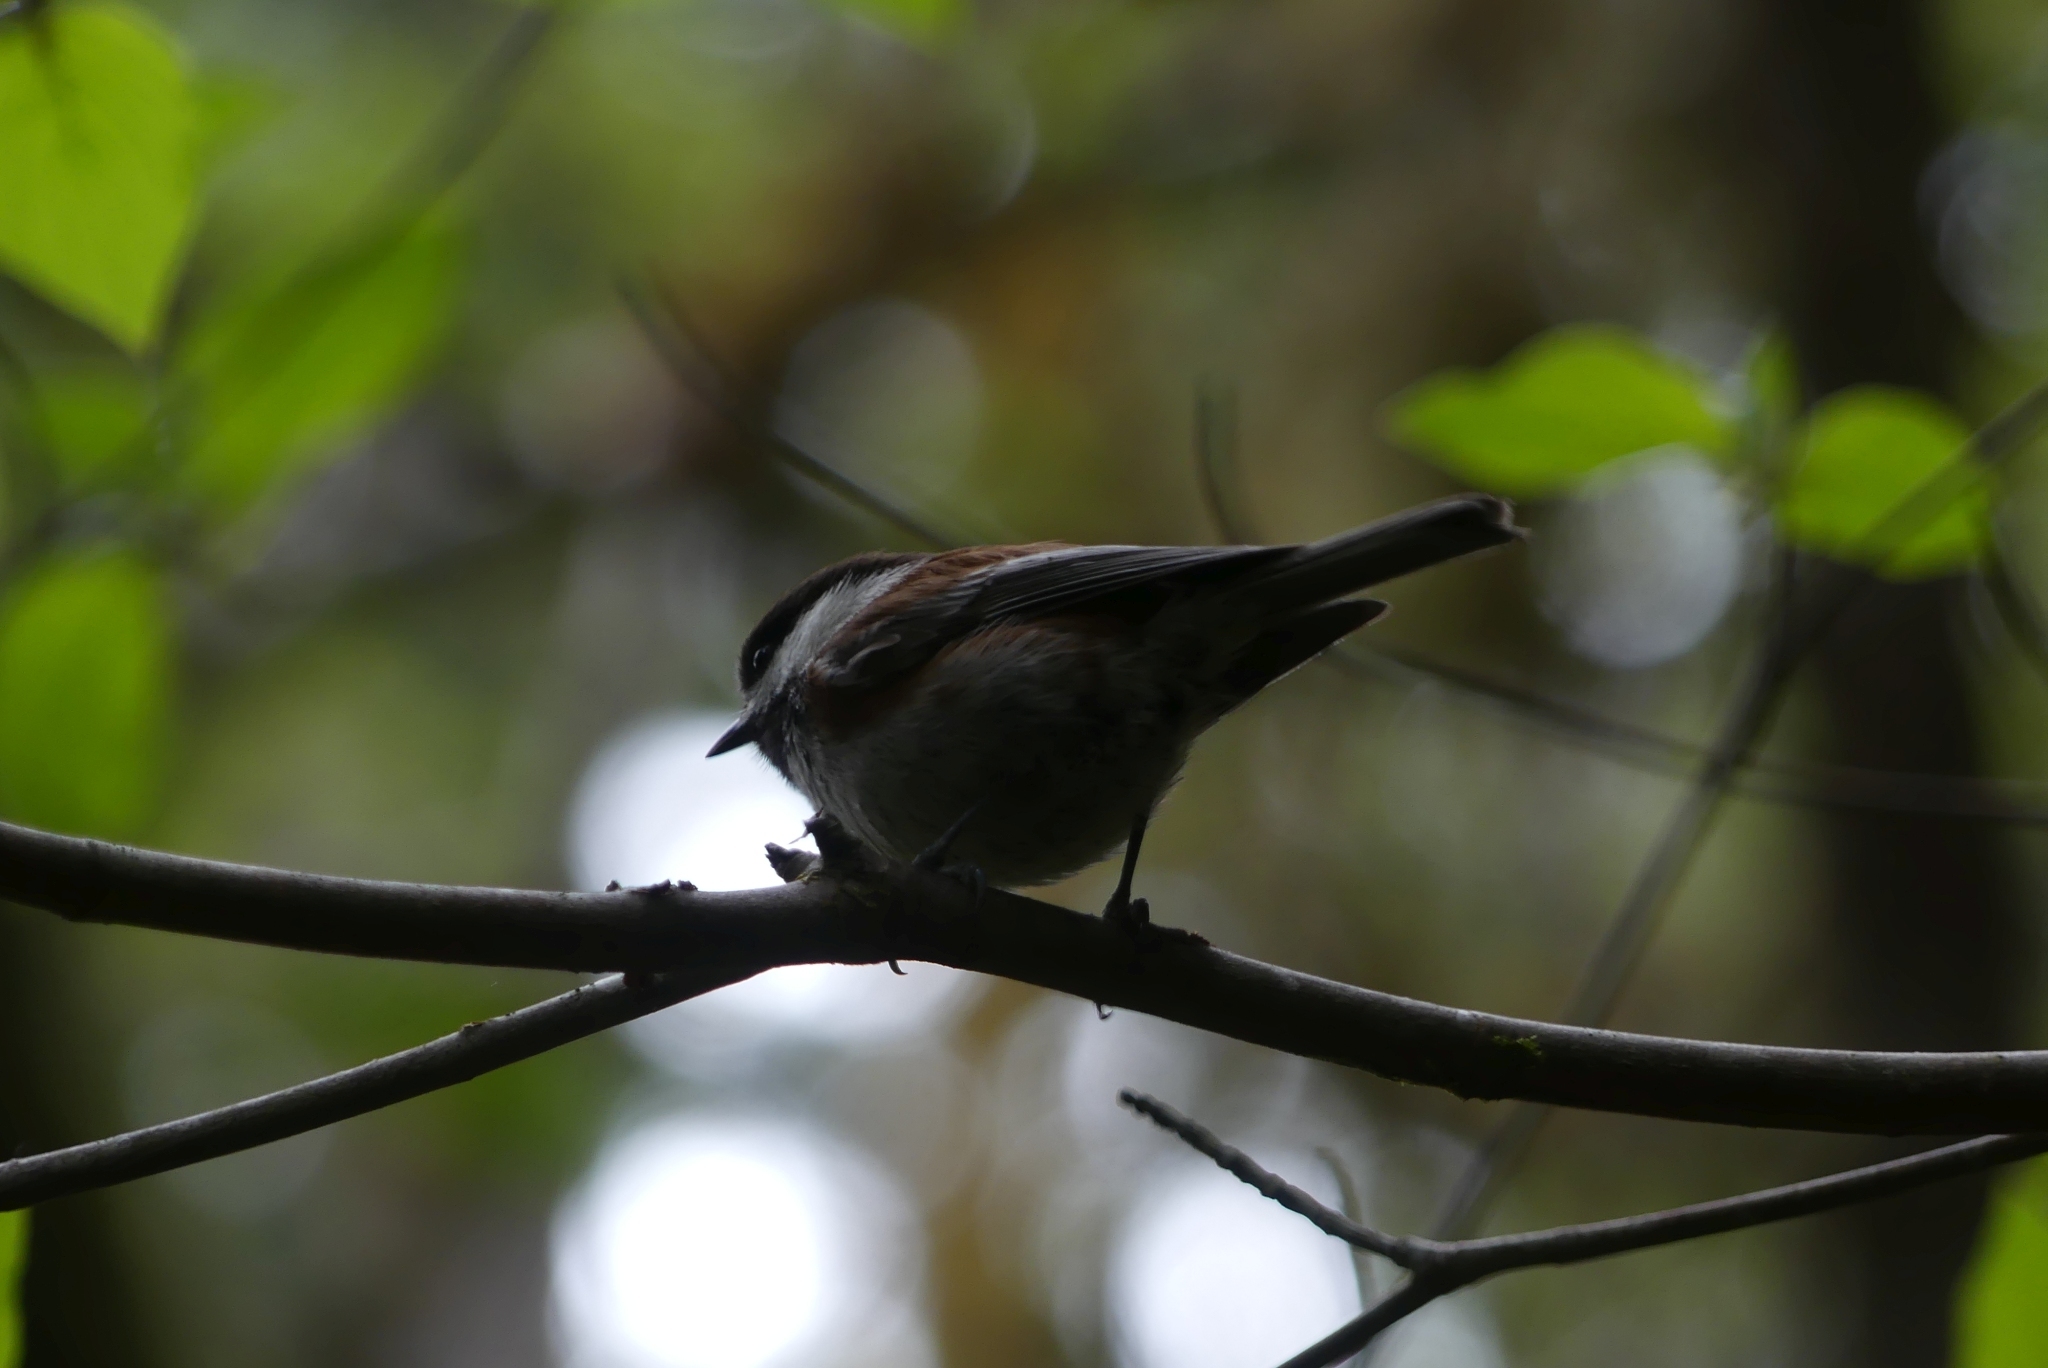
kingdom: Animalia
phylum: Chordata
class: Aves
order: Passeriformes
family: Paridae
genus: Poecile
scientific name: Poecile rufescens
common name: Chestnut-backed chickadee
